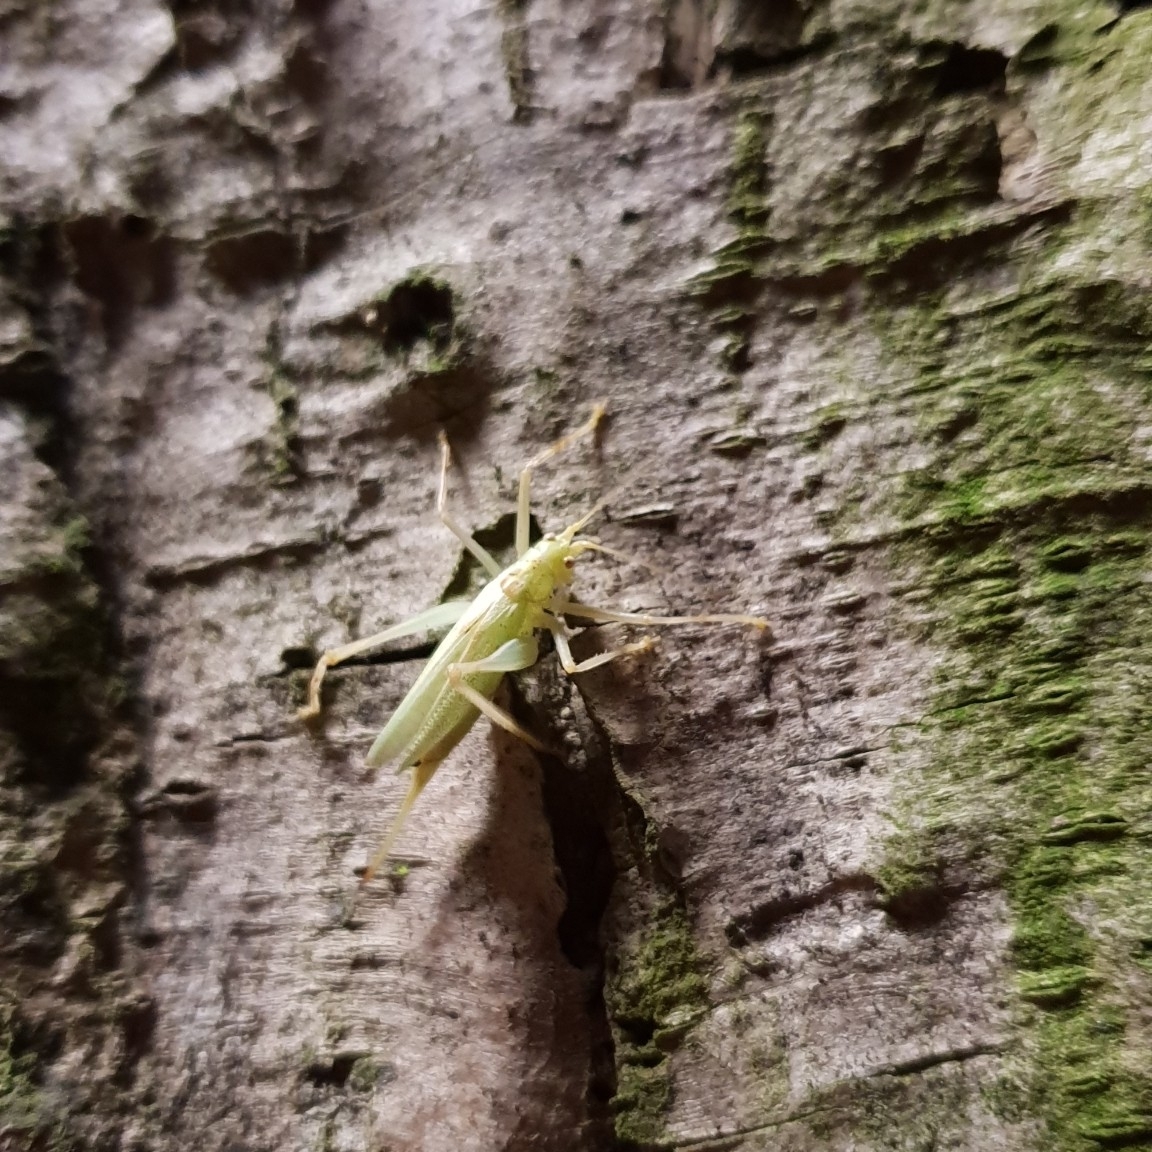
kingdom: Animalia
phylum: Arthropoda
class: Insecta
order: Orthoptera
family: Tettigoniidae
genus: Meconema
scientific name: Meconema thalassinum
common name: Oak bush-cricket
